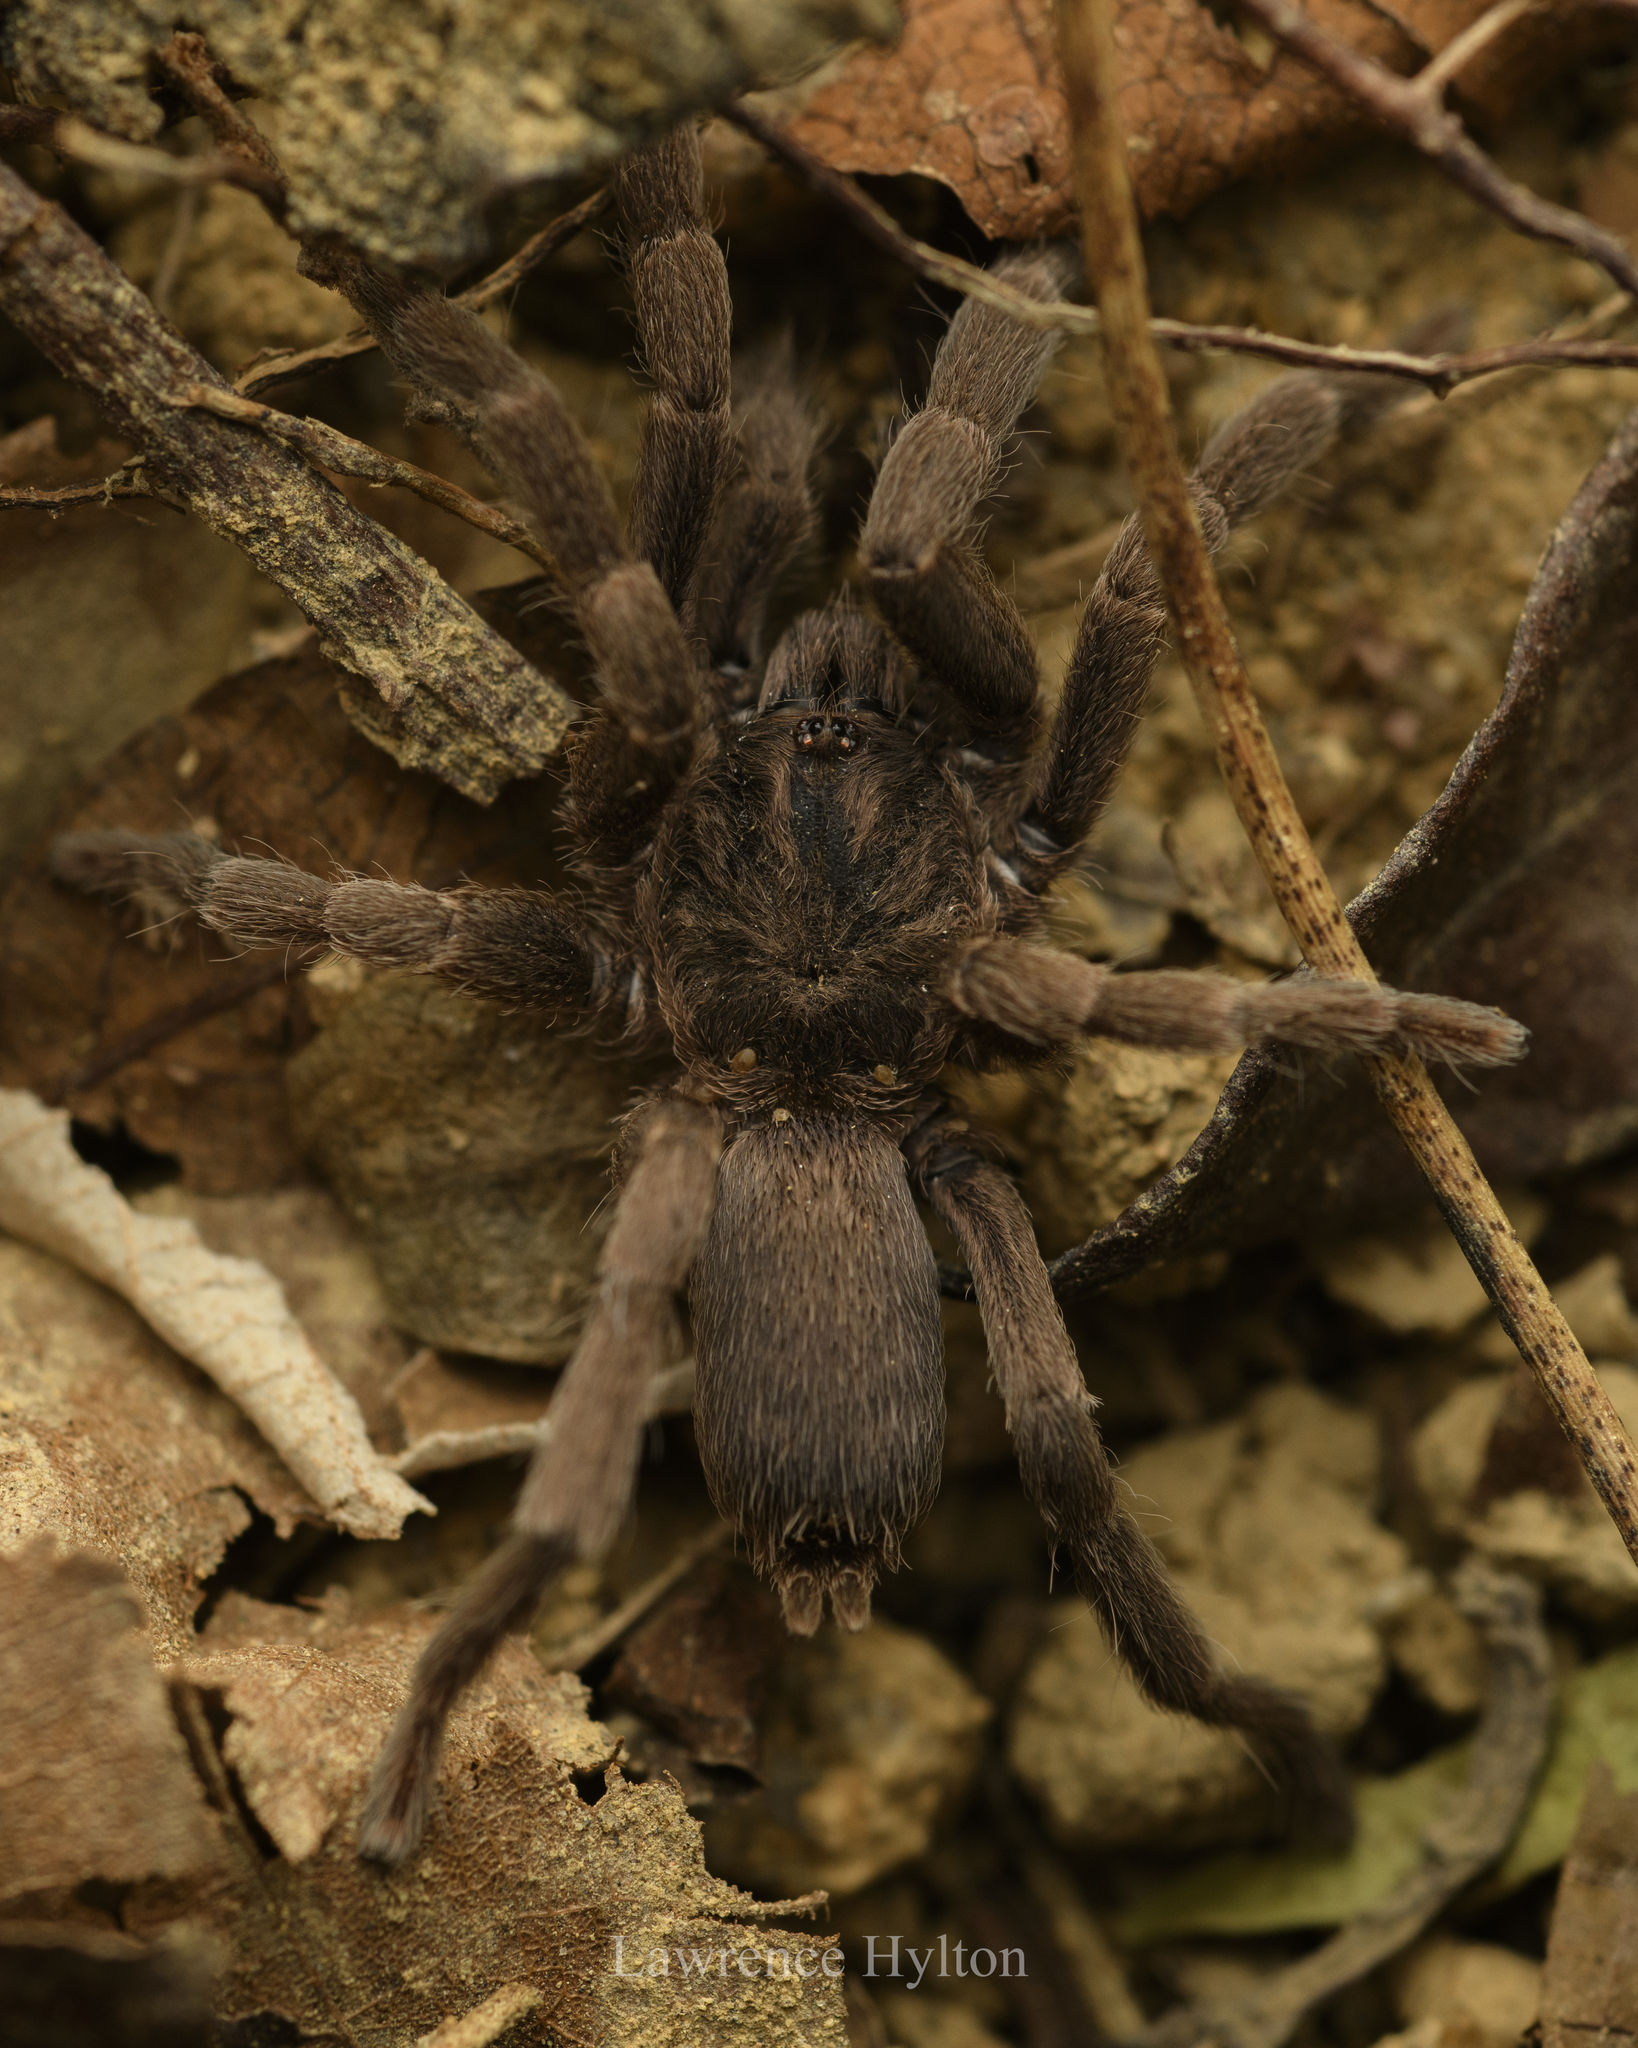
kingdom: Animalia
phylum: Arthropoda
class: Arachnida
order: Araneae
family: Theraphosidae
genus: Phlogiellus
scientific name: Phlogiellus
